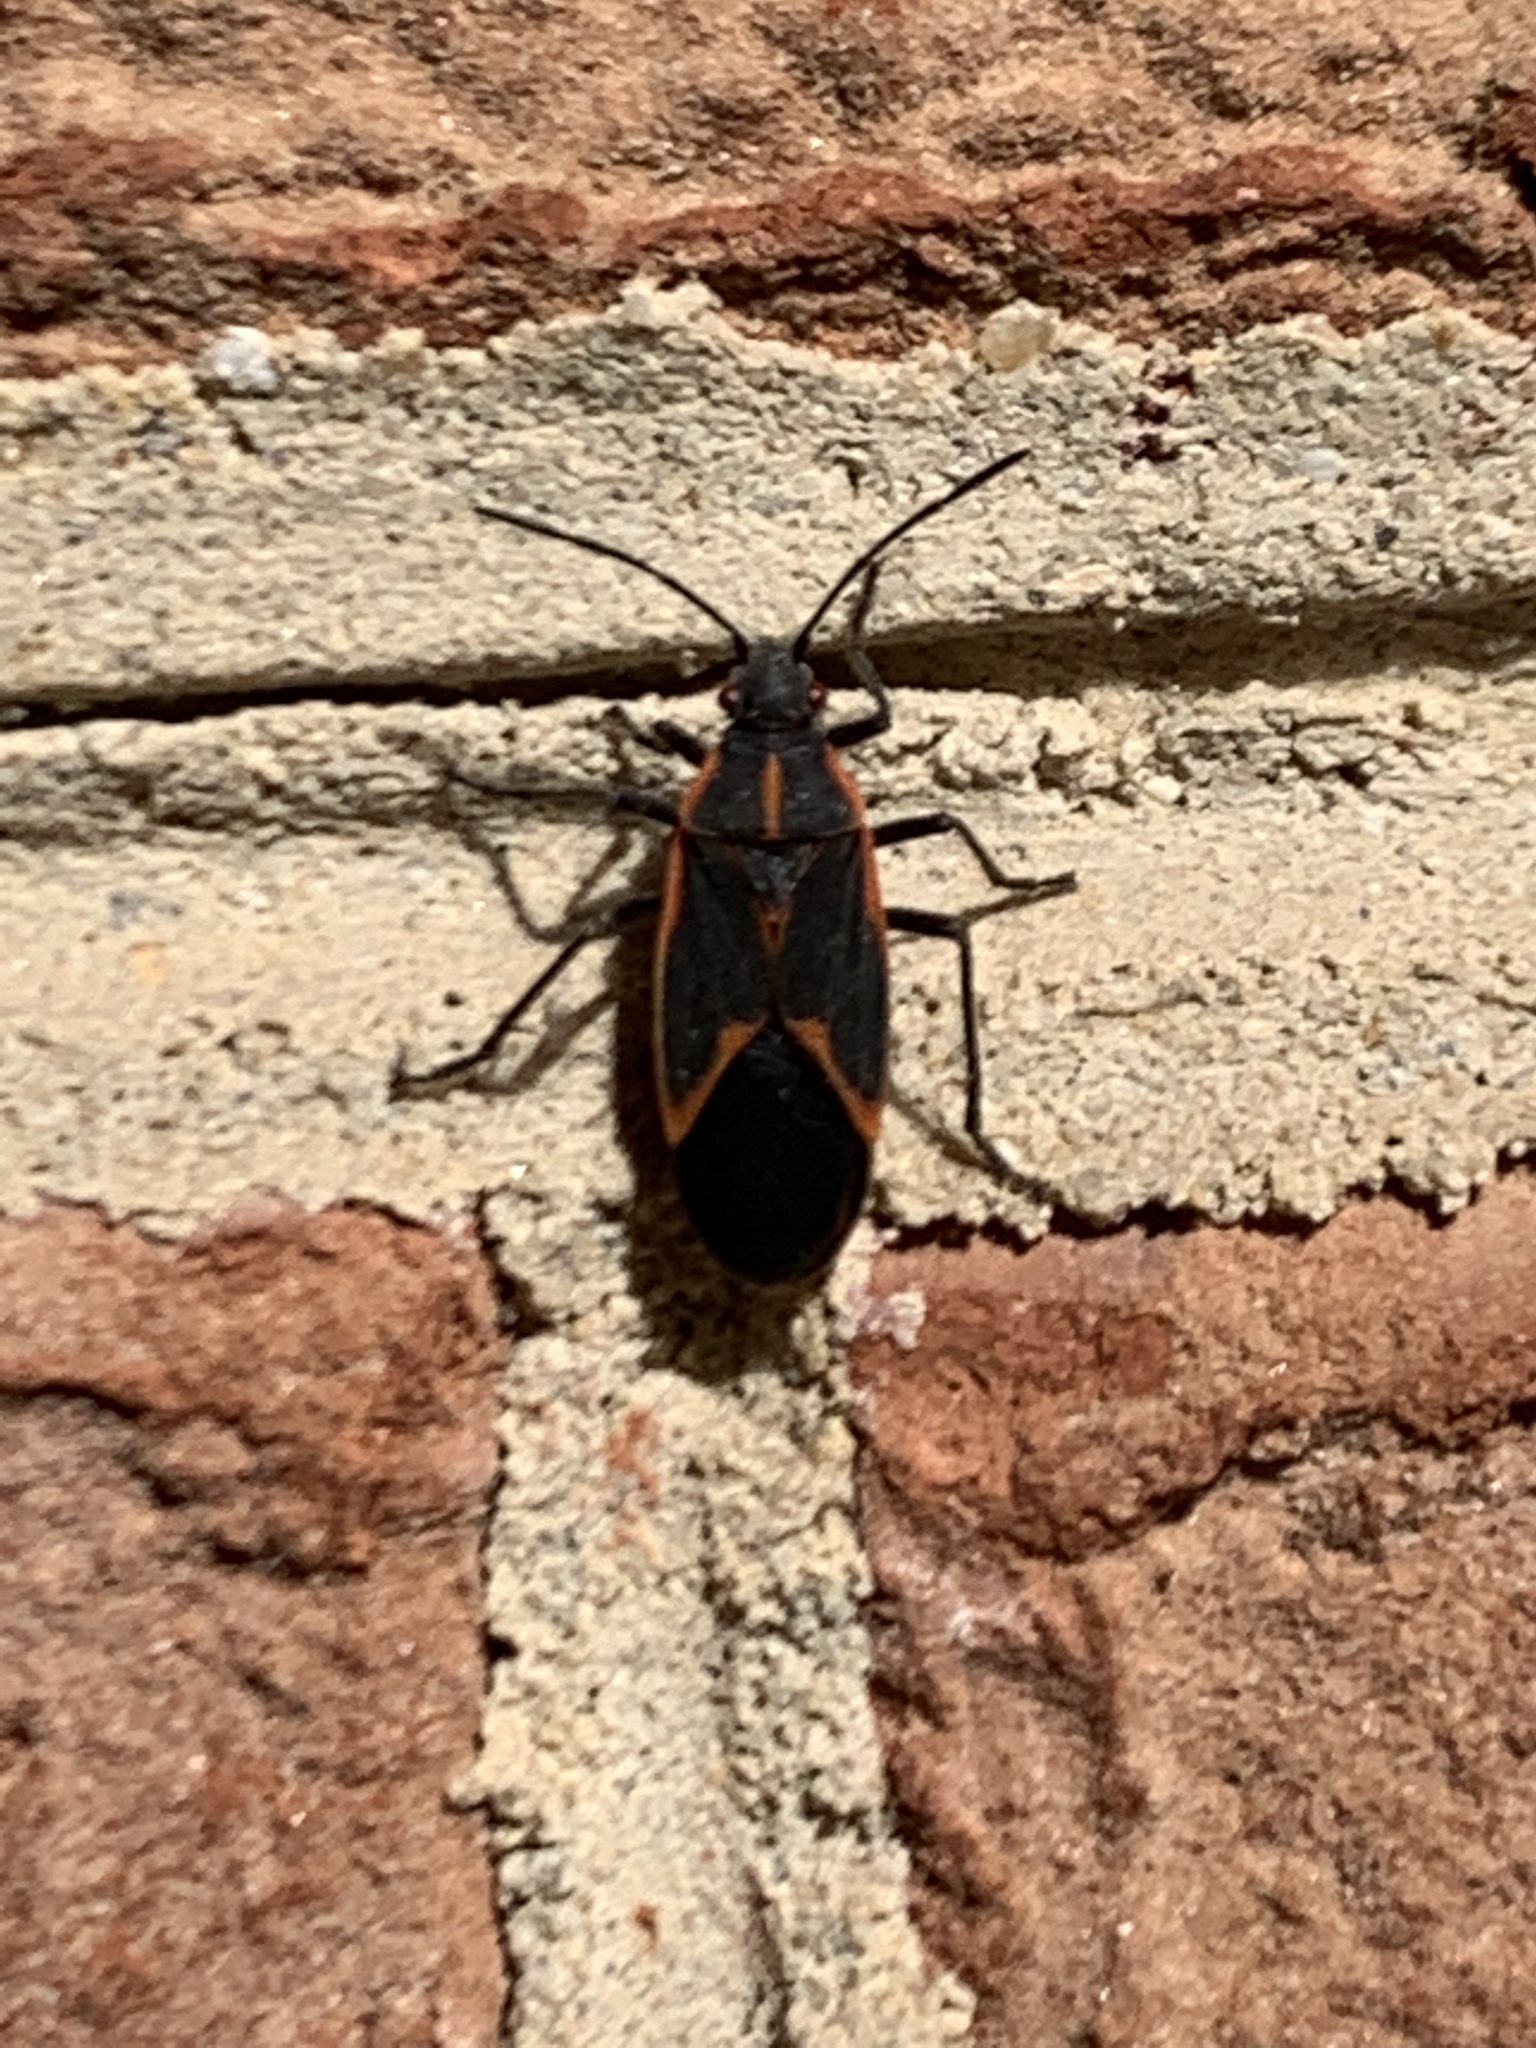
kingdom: Animalia
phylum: Arthropoda
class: Insecta
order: Hemiptera
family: Rhopalidae
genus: Boisea
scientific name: Boisea trivittata
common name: Boxelder bug
